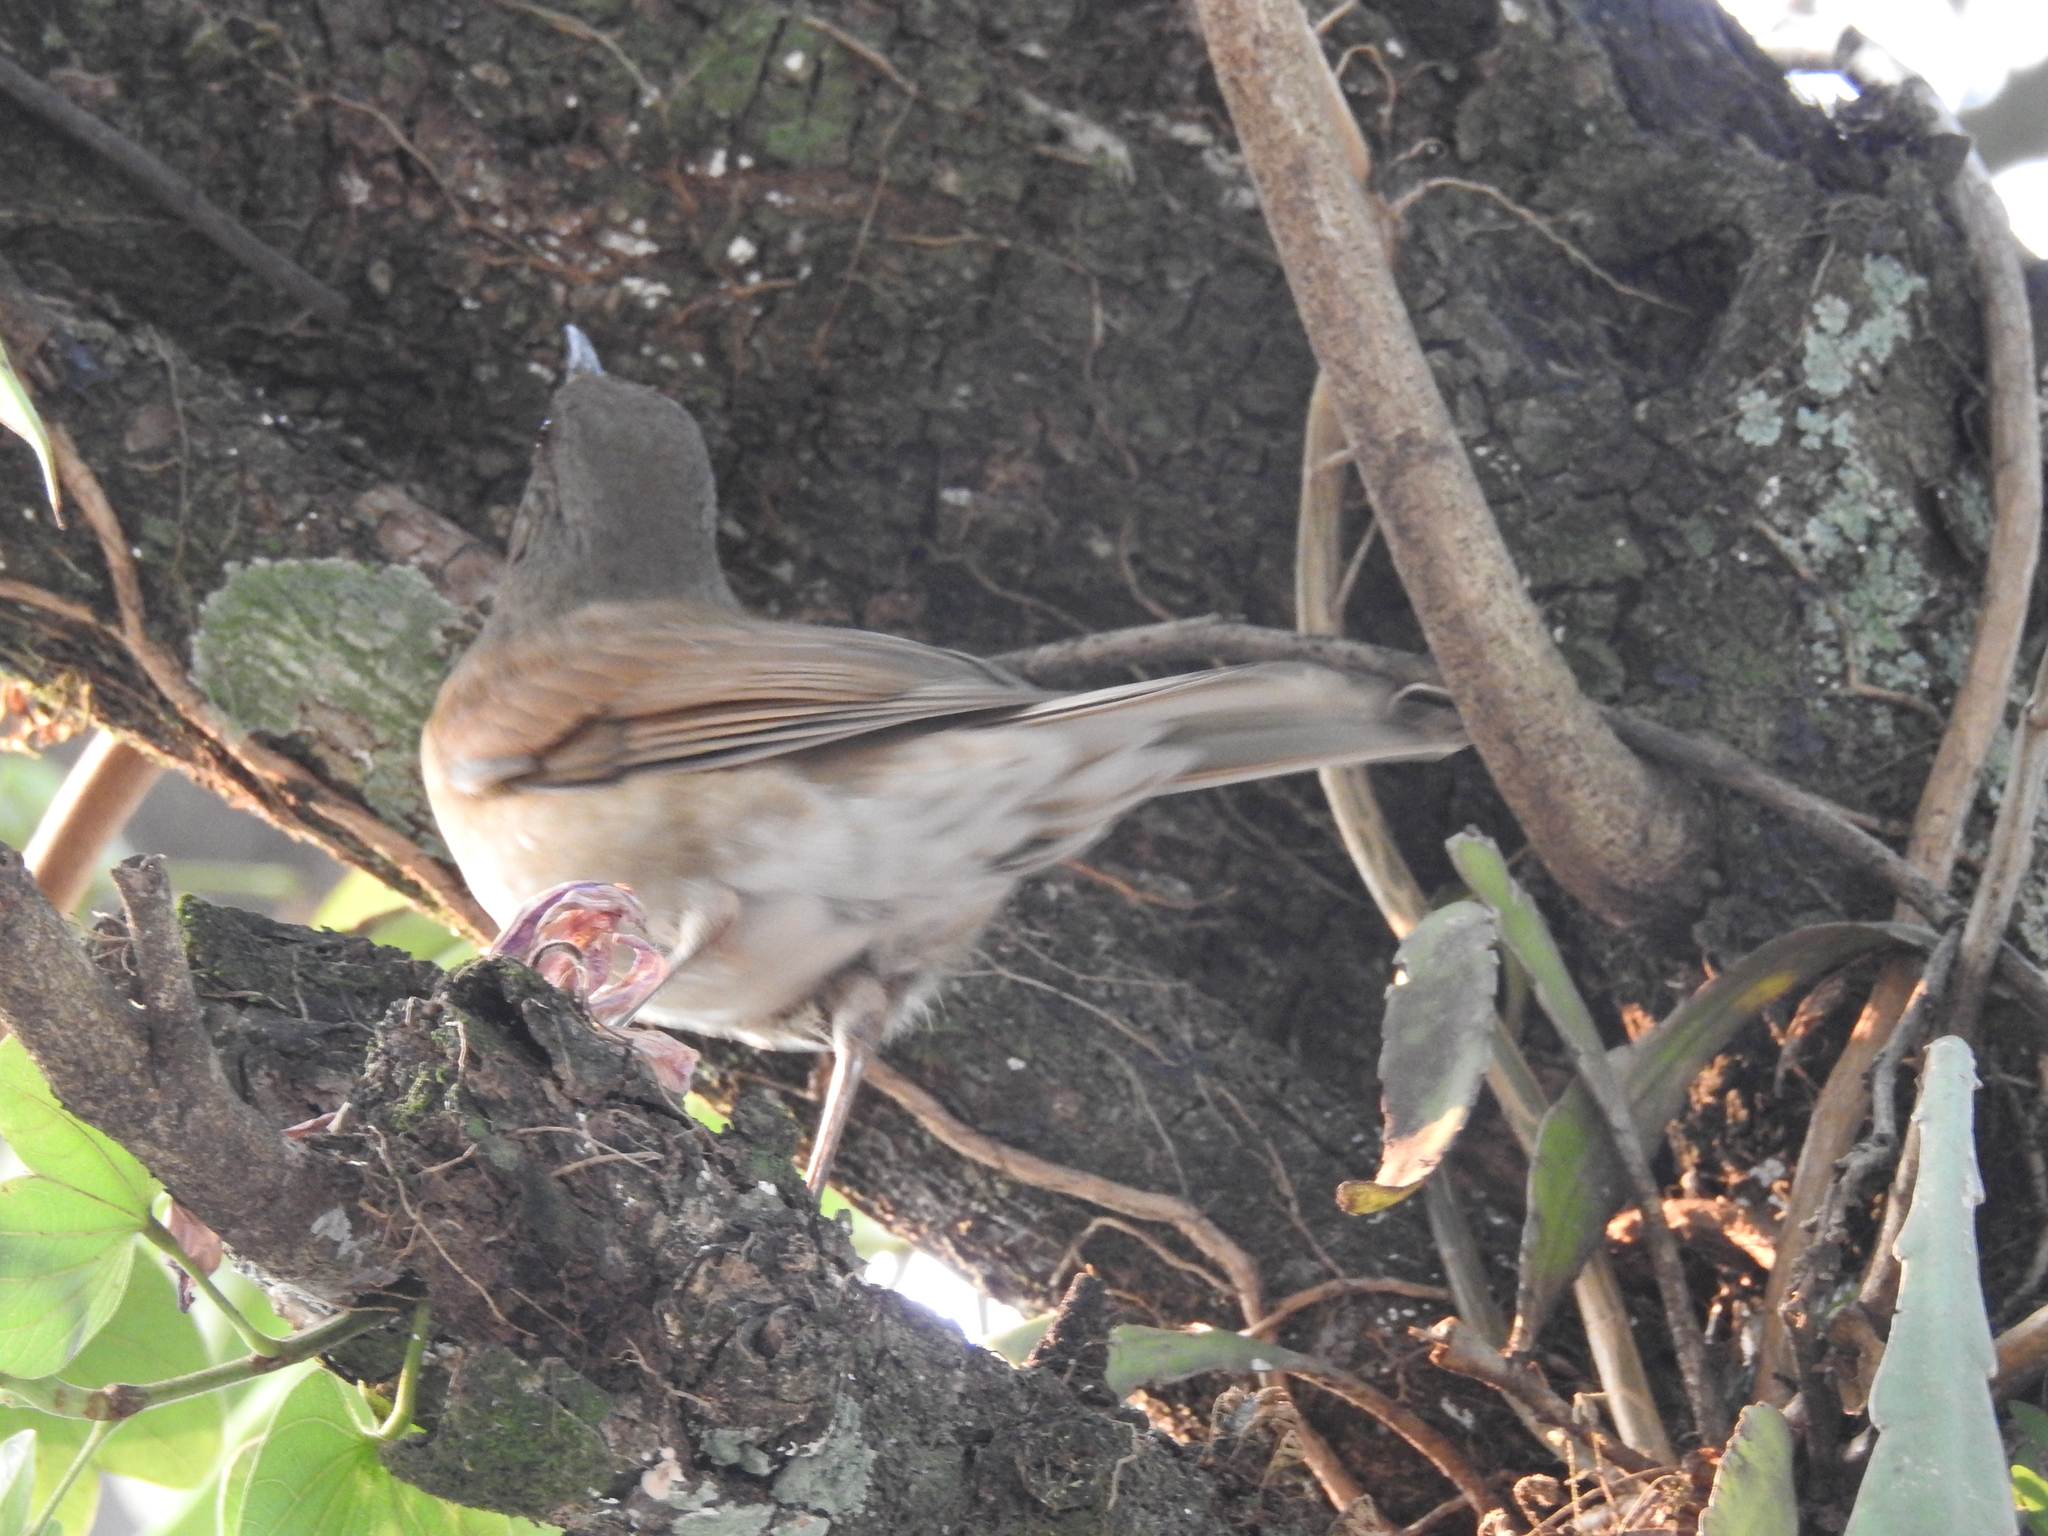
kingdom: Animalia
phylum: Chordata
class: Aves
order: Passeriformes
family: Turdidae
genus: Turdus
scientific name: Turdus leucomelas
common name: Pale-breasted thrush
